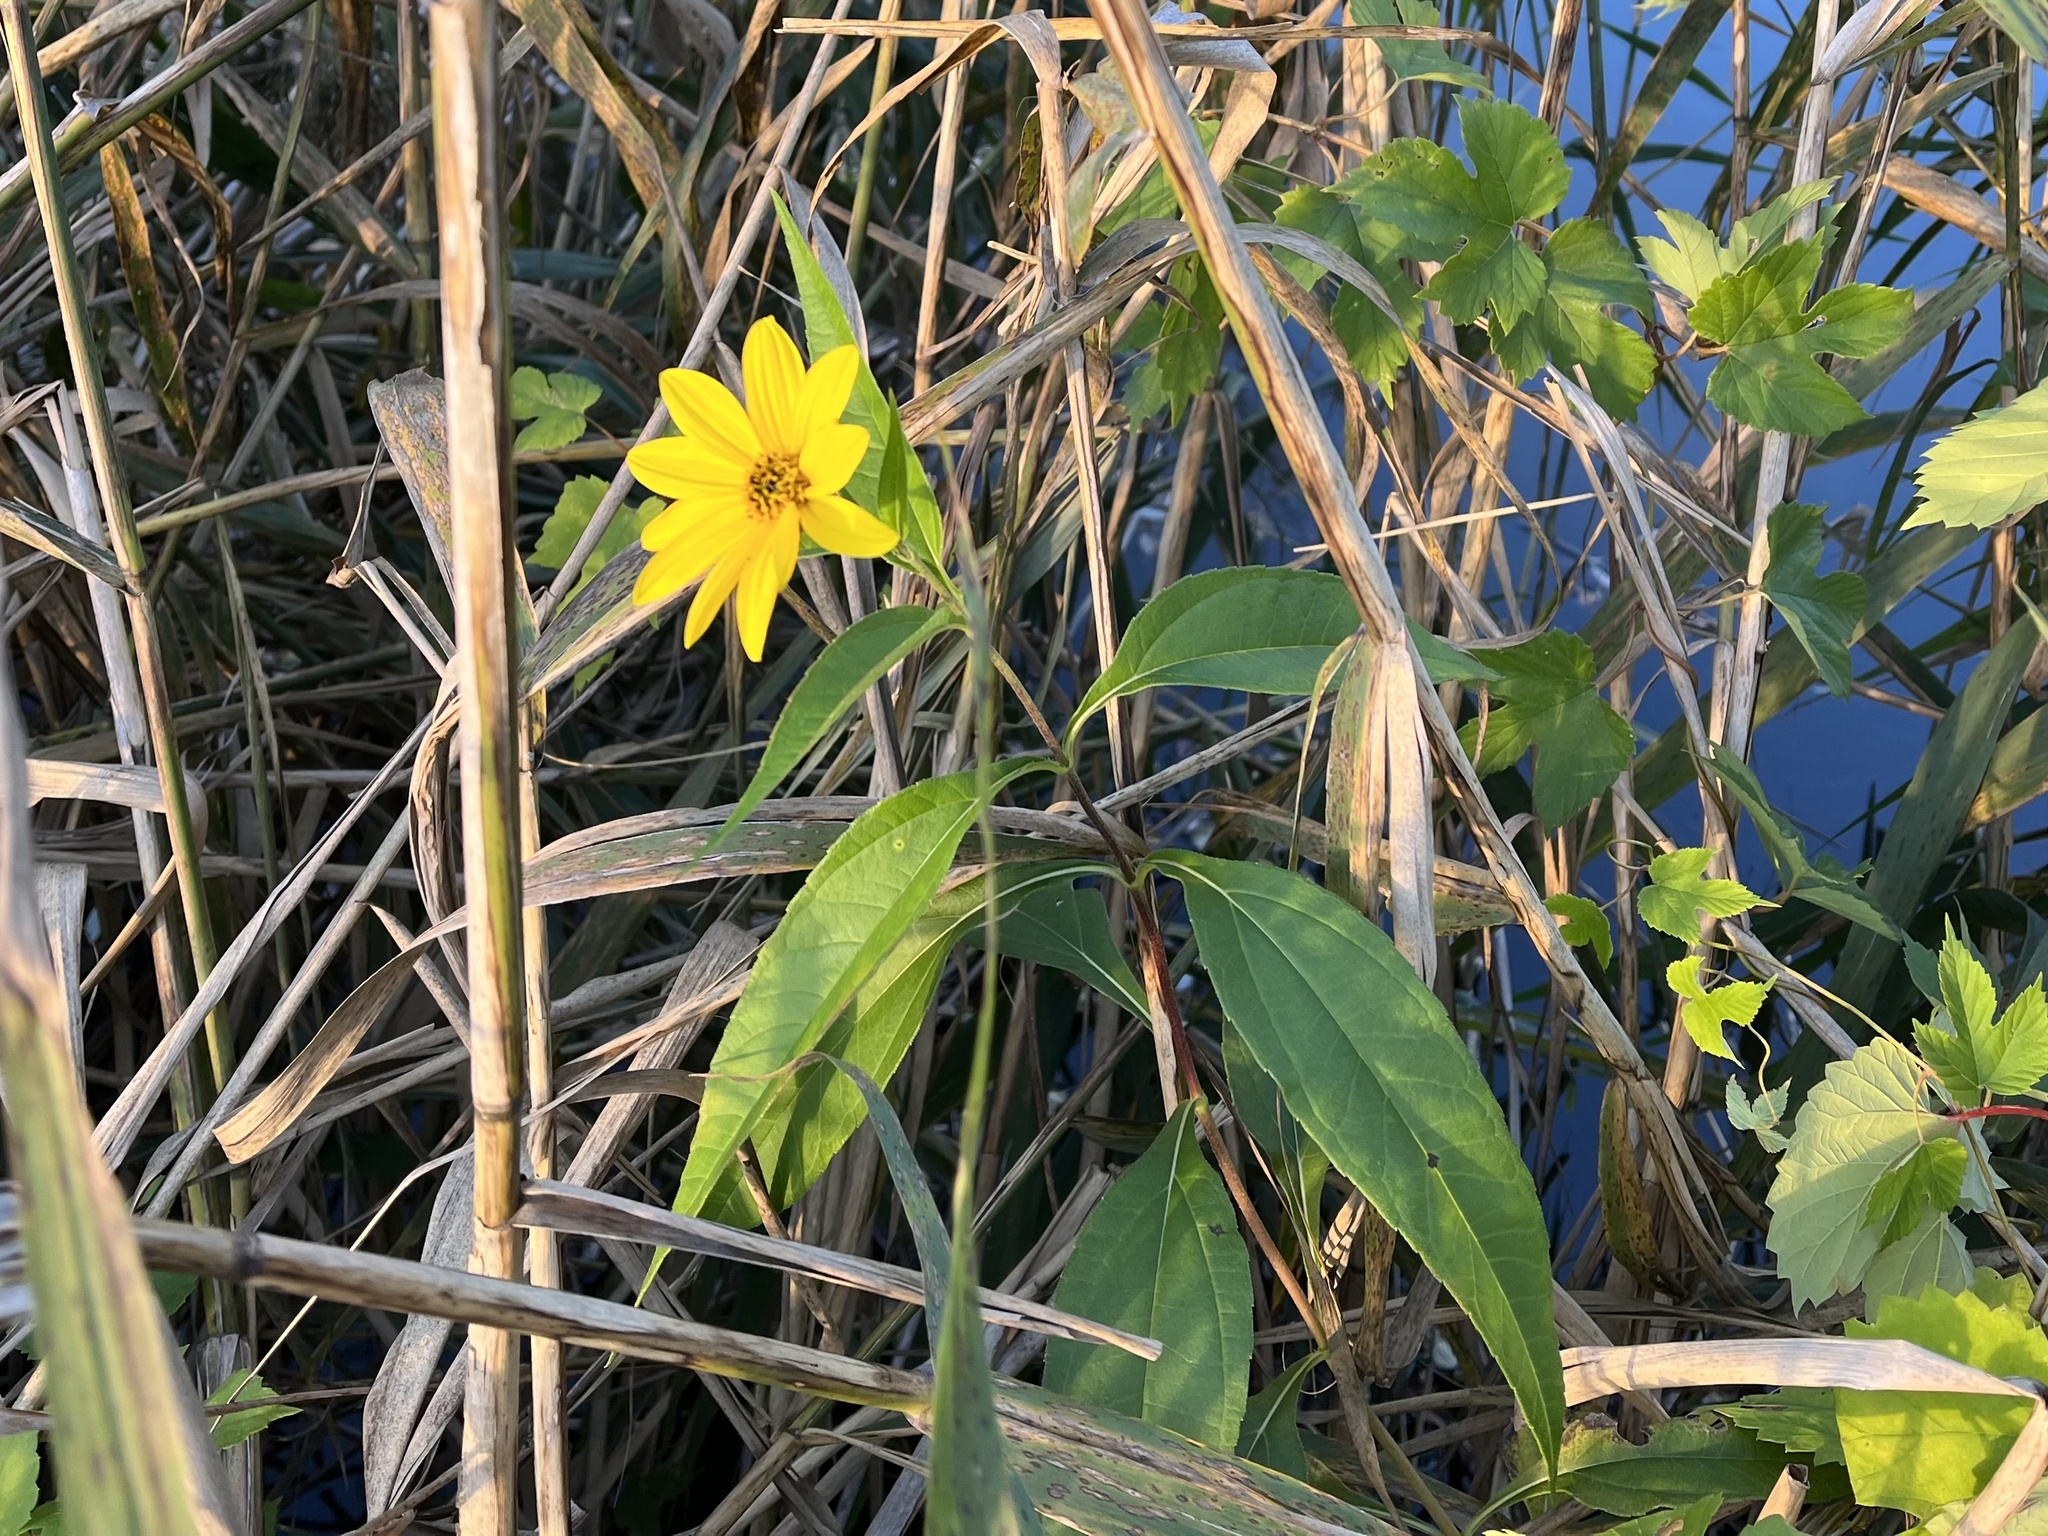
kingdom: Plantae
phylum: Tracheophyta
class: Magnoliopsida
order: Asterales
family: Asteraceae
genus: Helianthus
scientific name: Helianthus tuberosus
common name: Jerusalem artichoke
